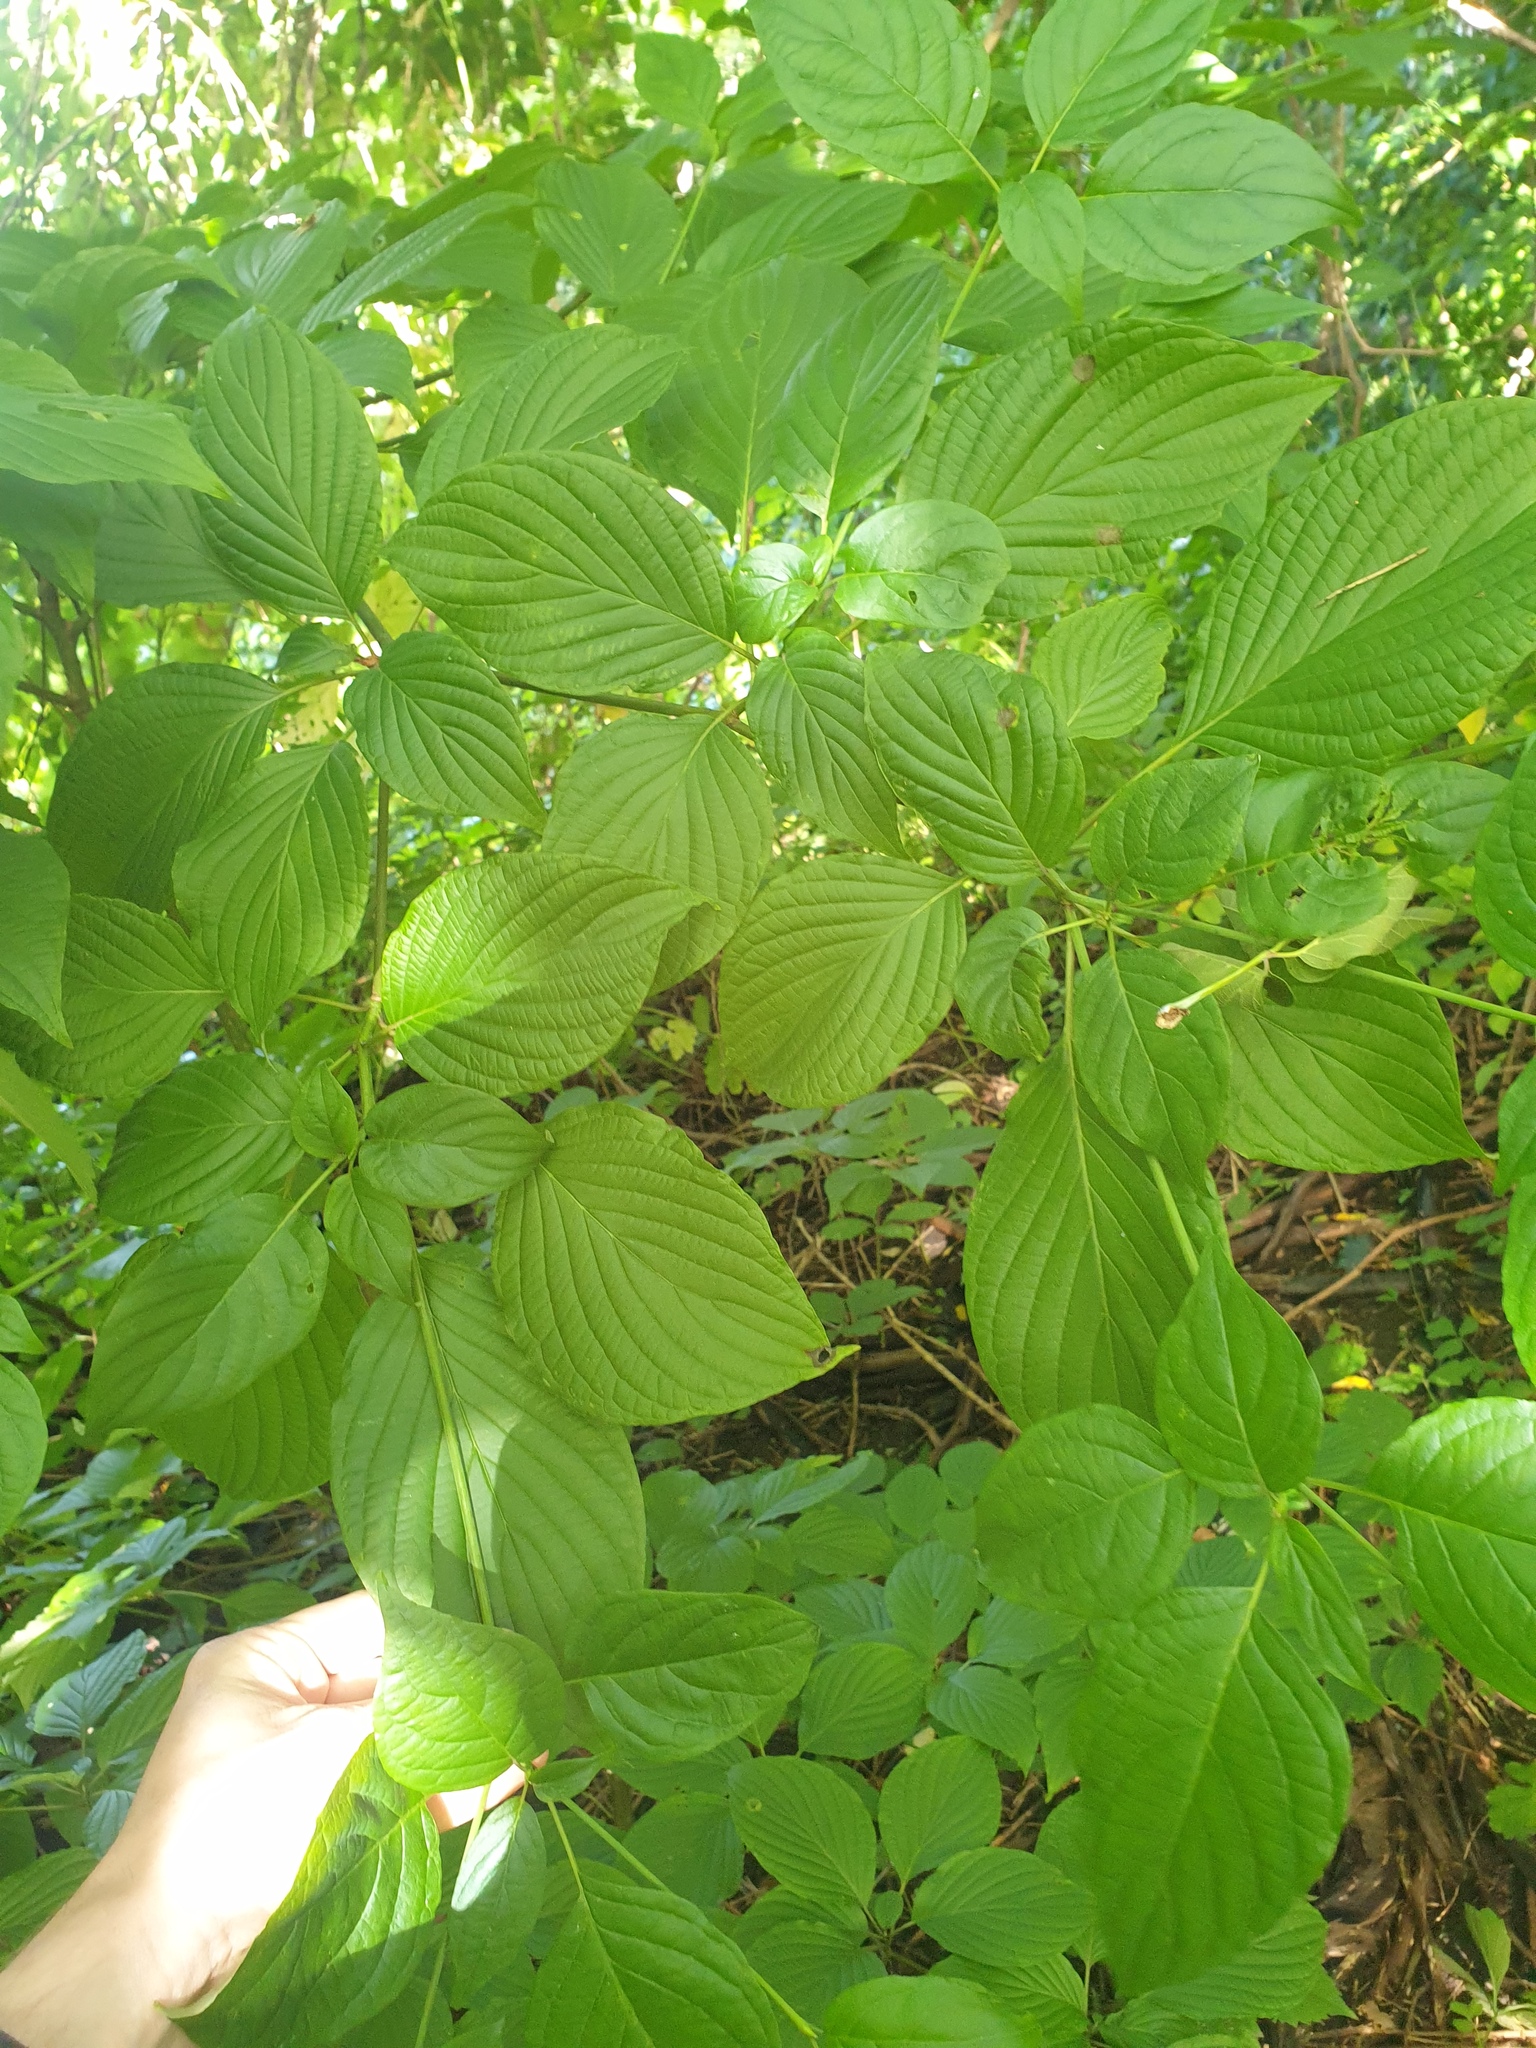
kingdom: Plantae
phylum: Tracheophyta
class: Magnoliopsida
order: Cornales
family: Cornaceae
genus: Cornus
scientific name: Cornus alternifolia
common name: Pagoda dogwood
